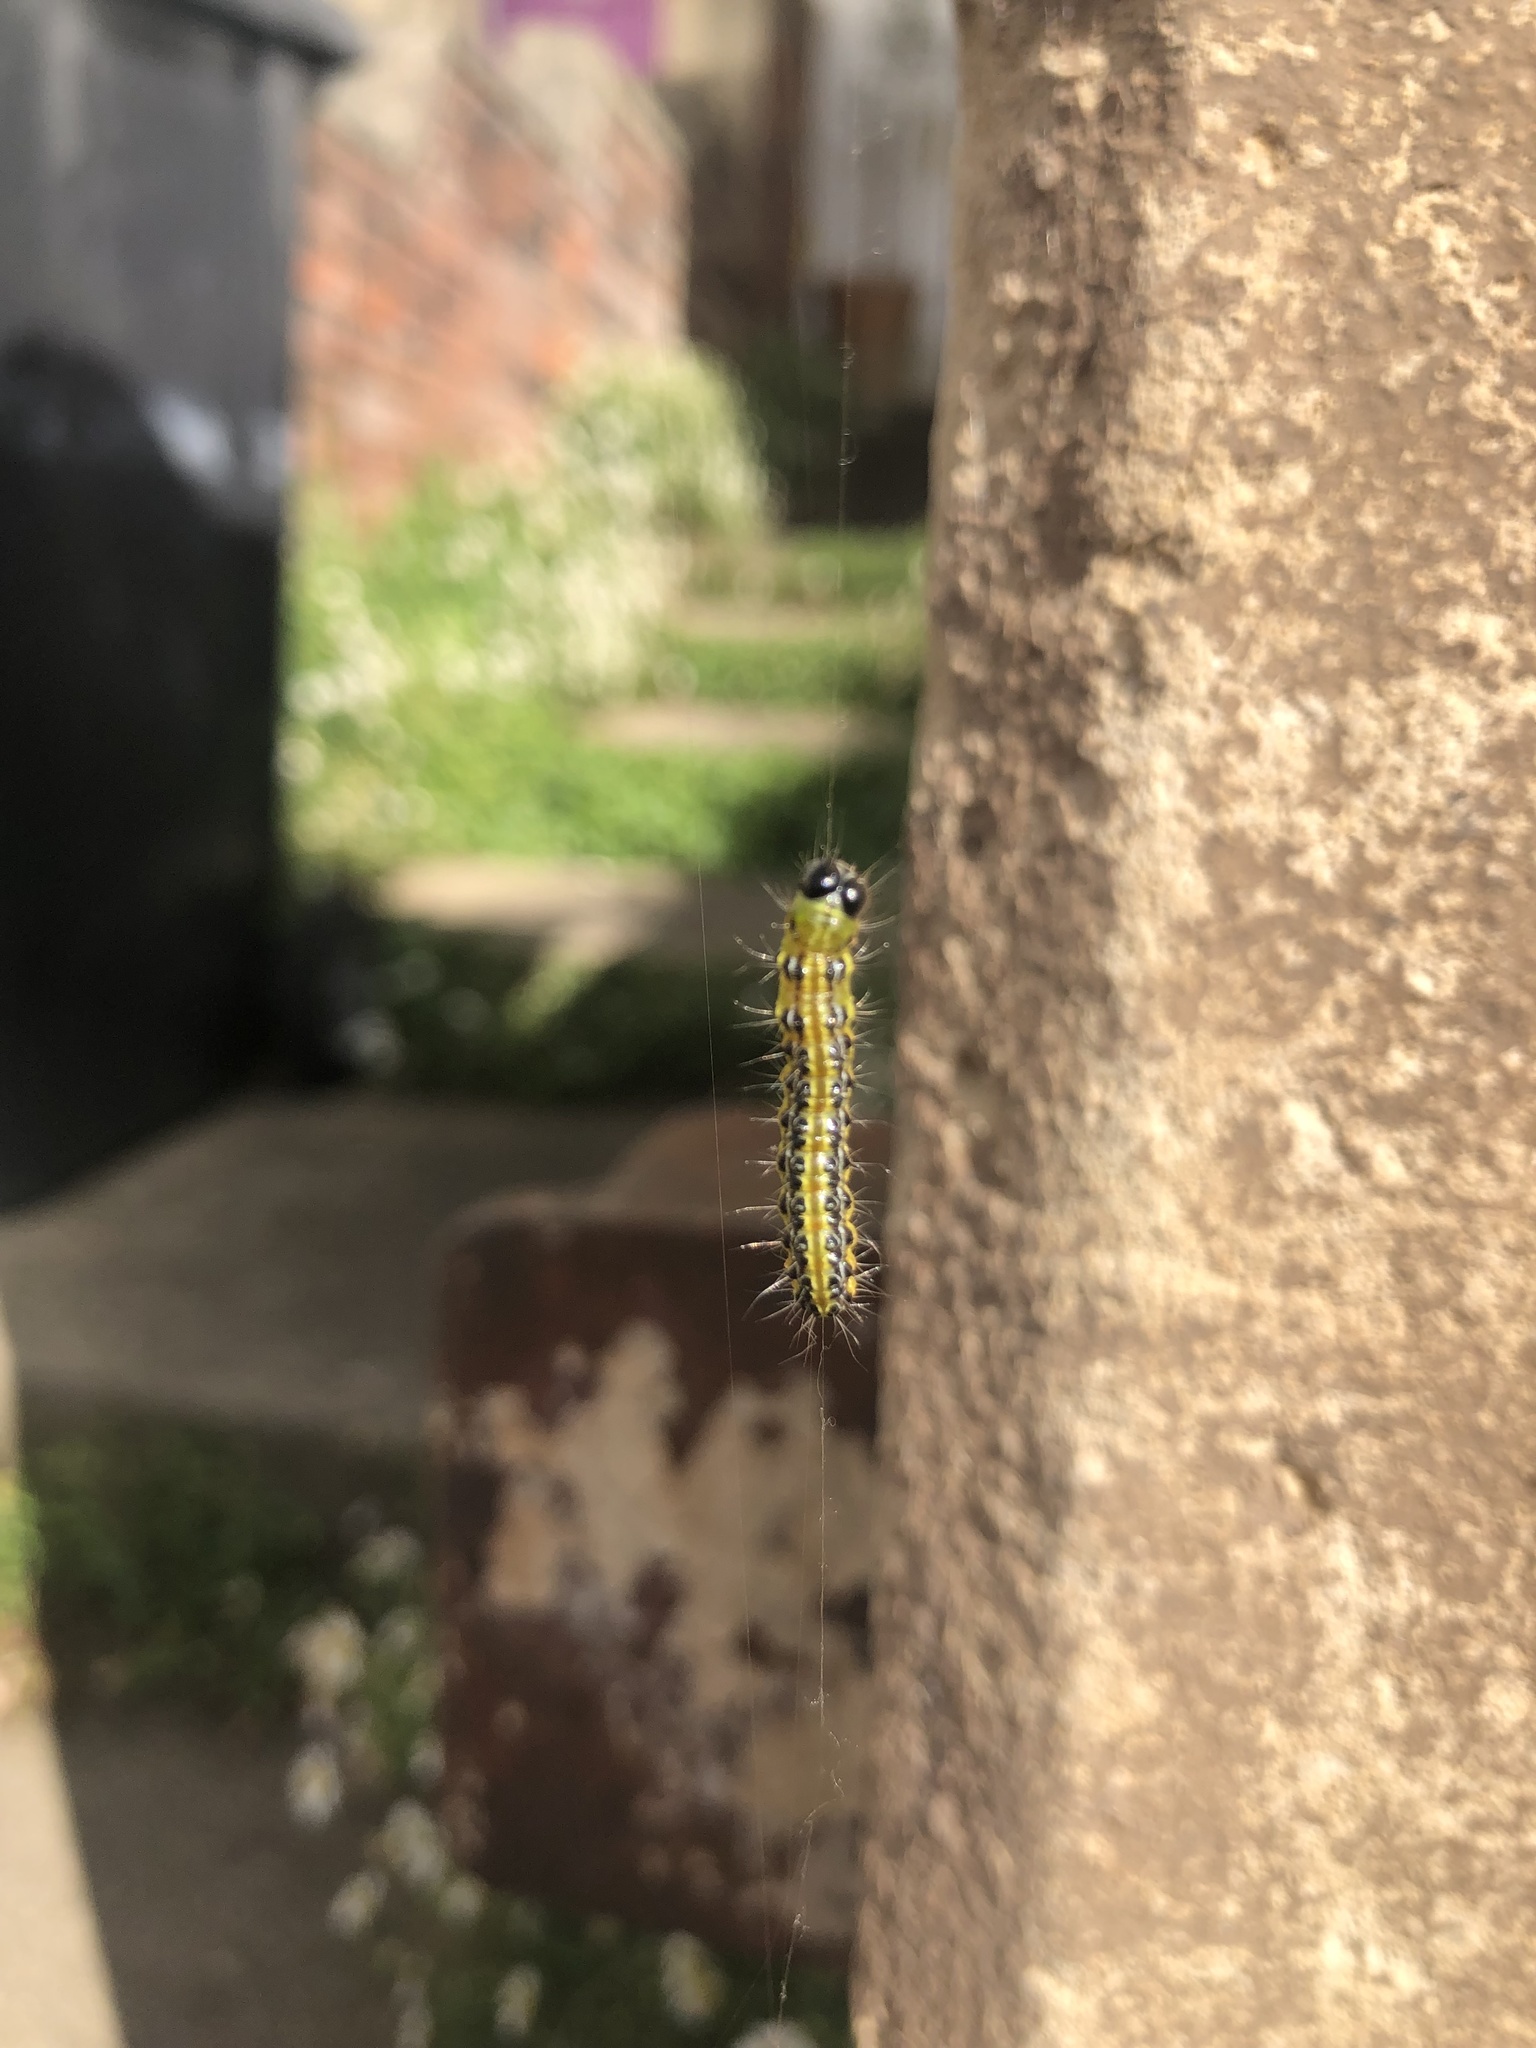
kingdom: Animalia
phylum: Arthropoda
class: Insecta
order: Lepidoptera
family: Crambidae
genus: Cydalima
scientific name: Cydalima perspectalis
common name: Box tree moth
